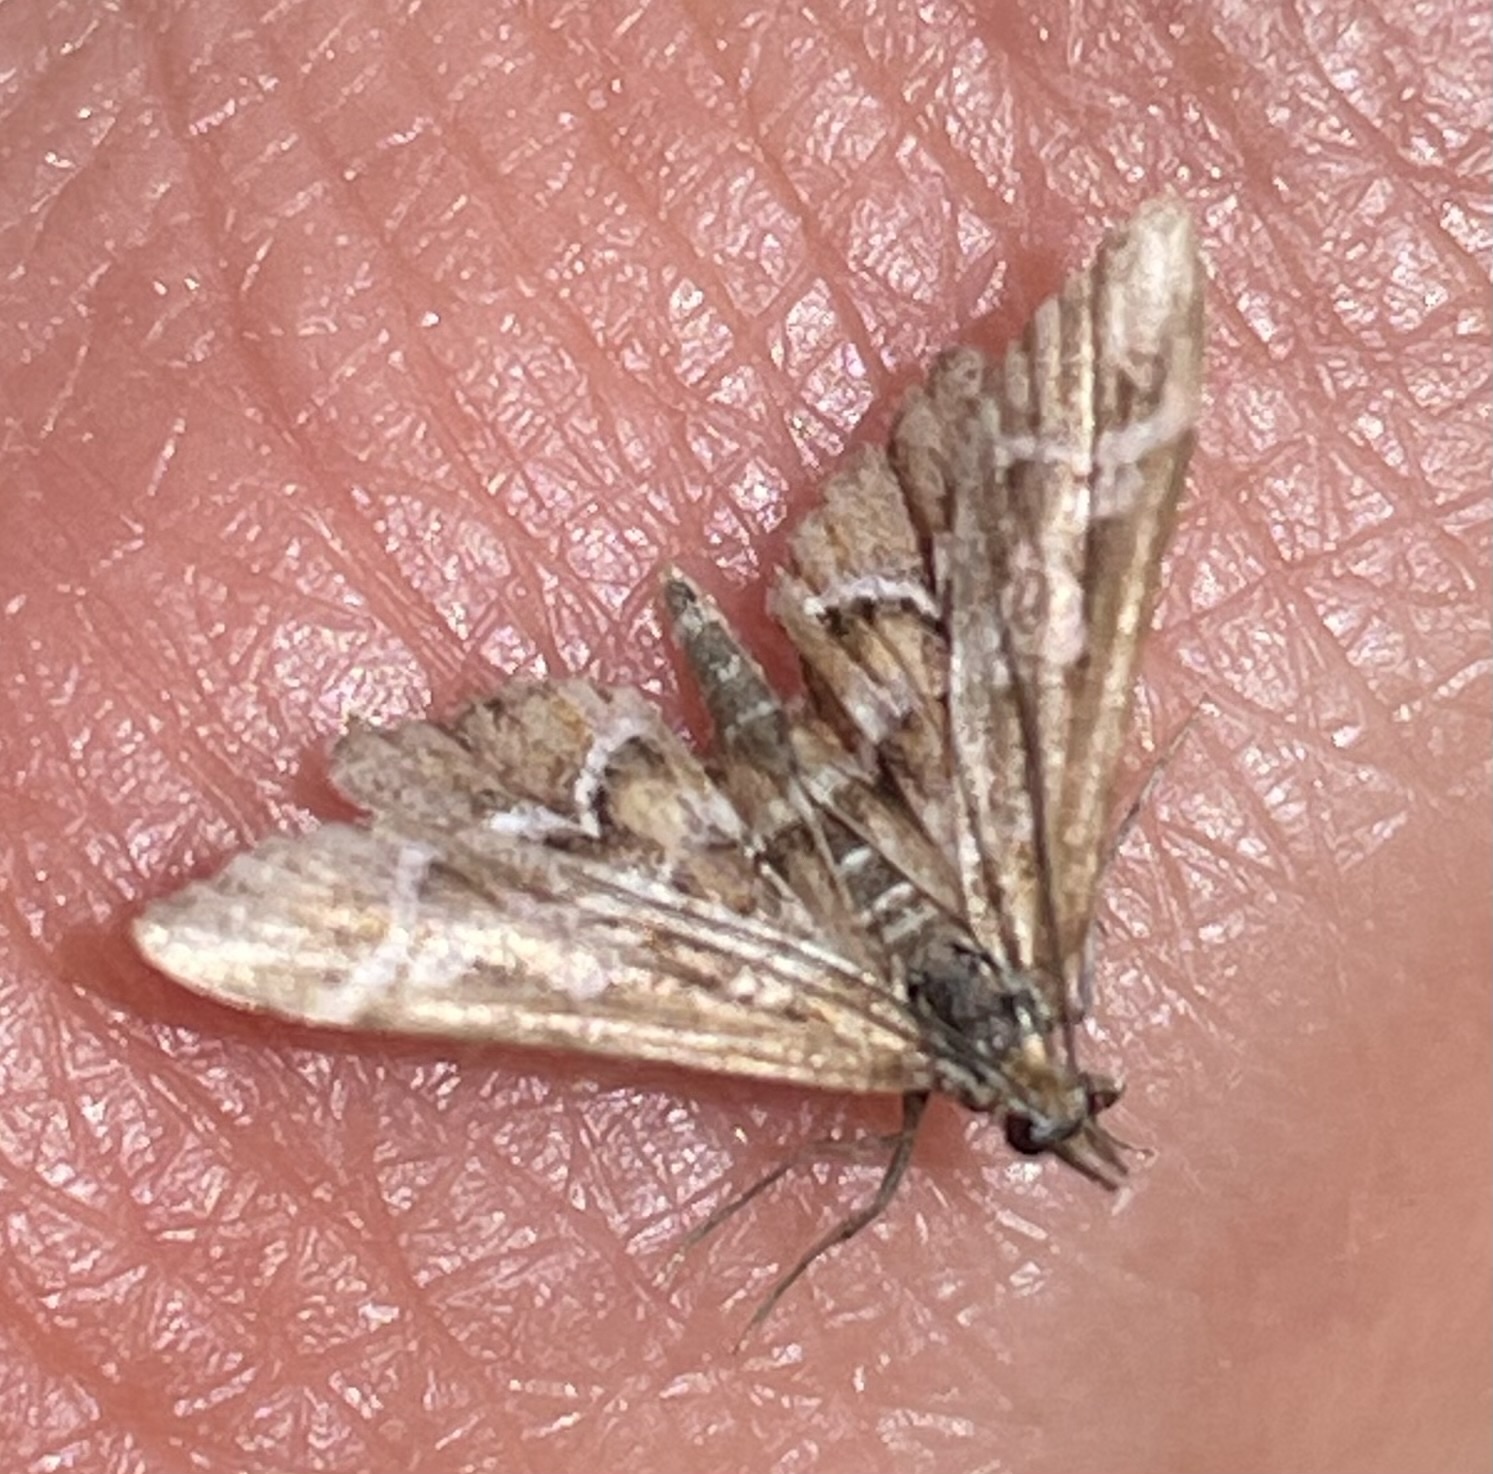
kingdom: Animalia
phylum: Arthropoda
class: Insecta
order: Lepidoptera
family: Crambidae
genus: Diasemia
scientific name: Diasemia reticularis
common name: Lettered china-mark
